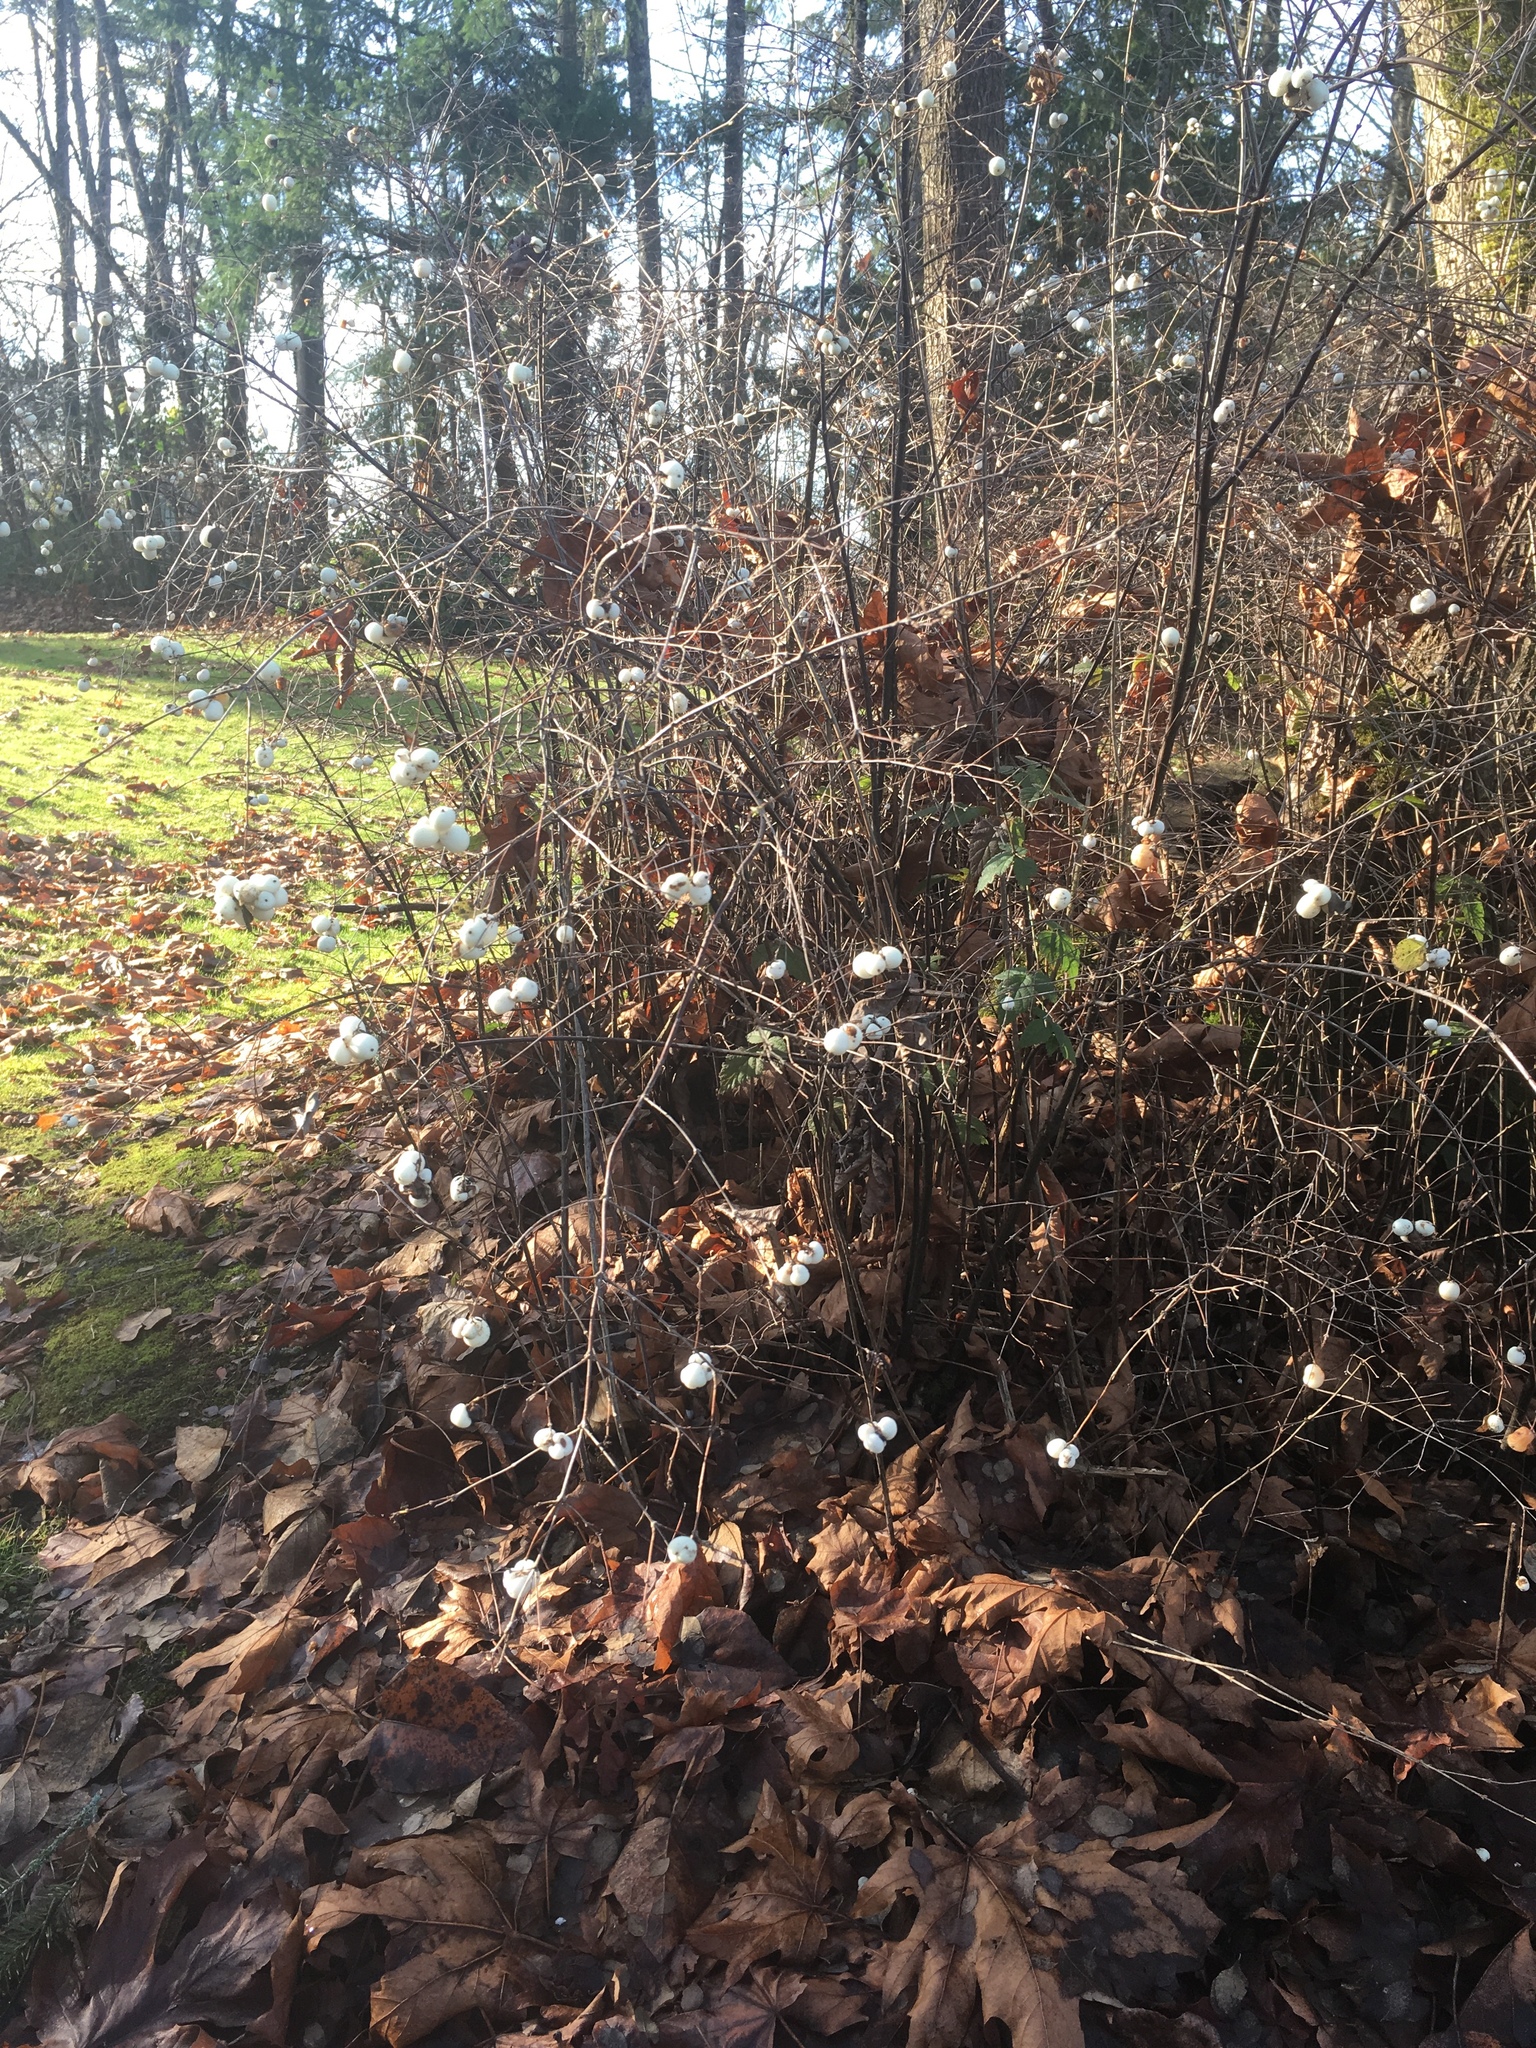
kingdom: Plantae
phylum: Tracheophyta
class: Magnoliopsida
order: Dipsacales
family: Caprifoliaceae
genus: Symphoricarpos
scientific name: Symphoricarpos albus
